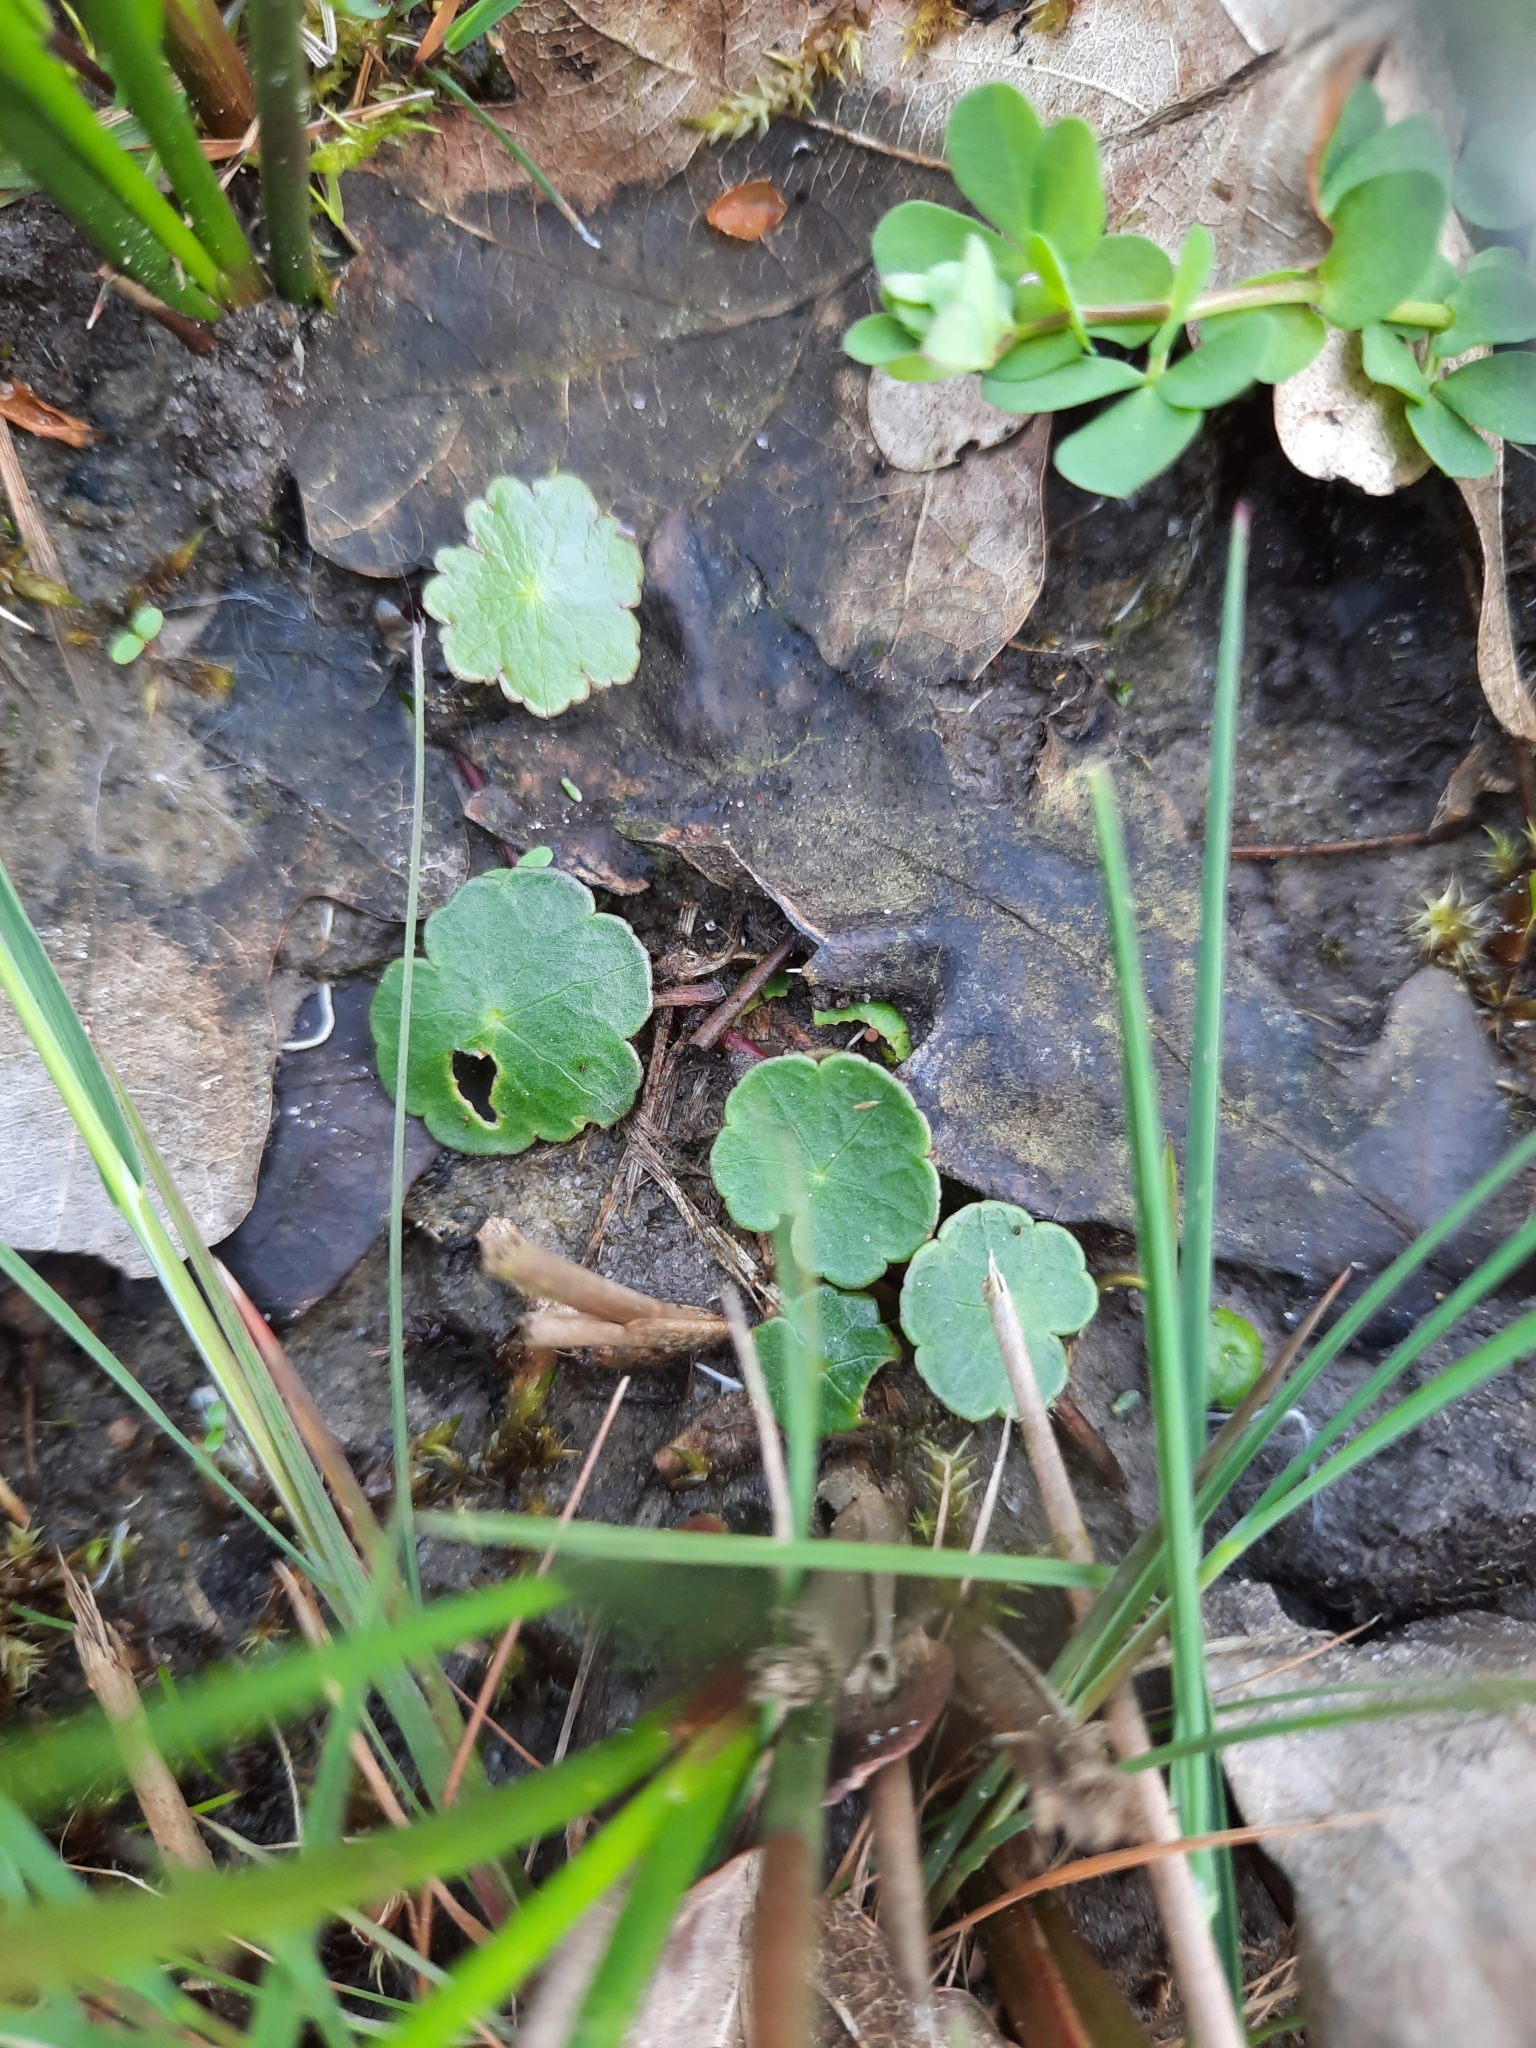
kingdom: Plantae
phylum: Tracheophyta
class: Magnoliopsida
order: Apiales
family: Araliaceae
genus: Hydrocotyle
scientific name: Hydrocotyle vulgaris
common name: Marsh pennywort
